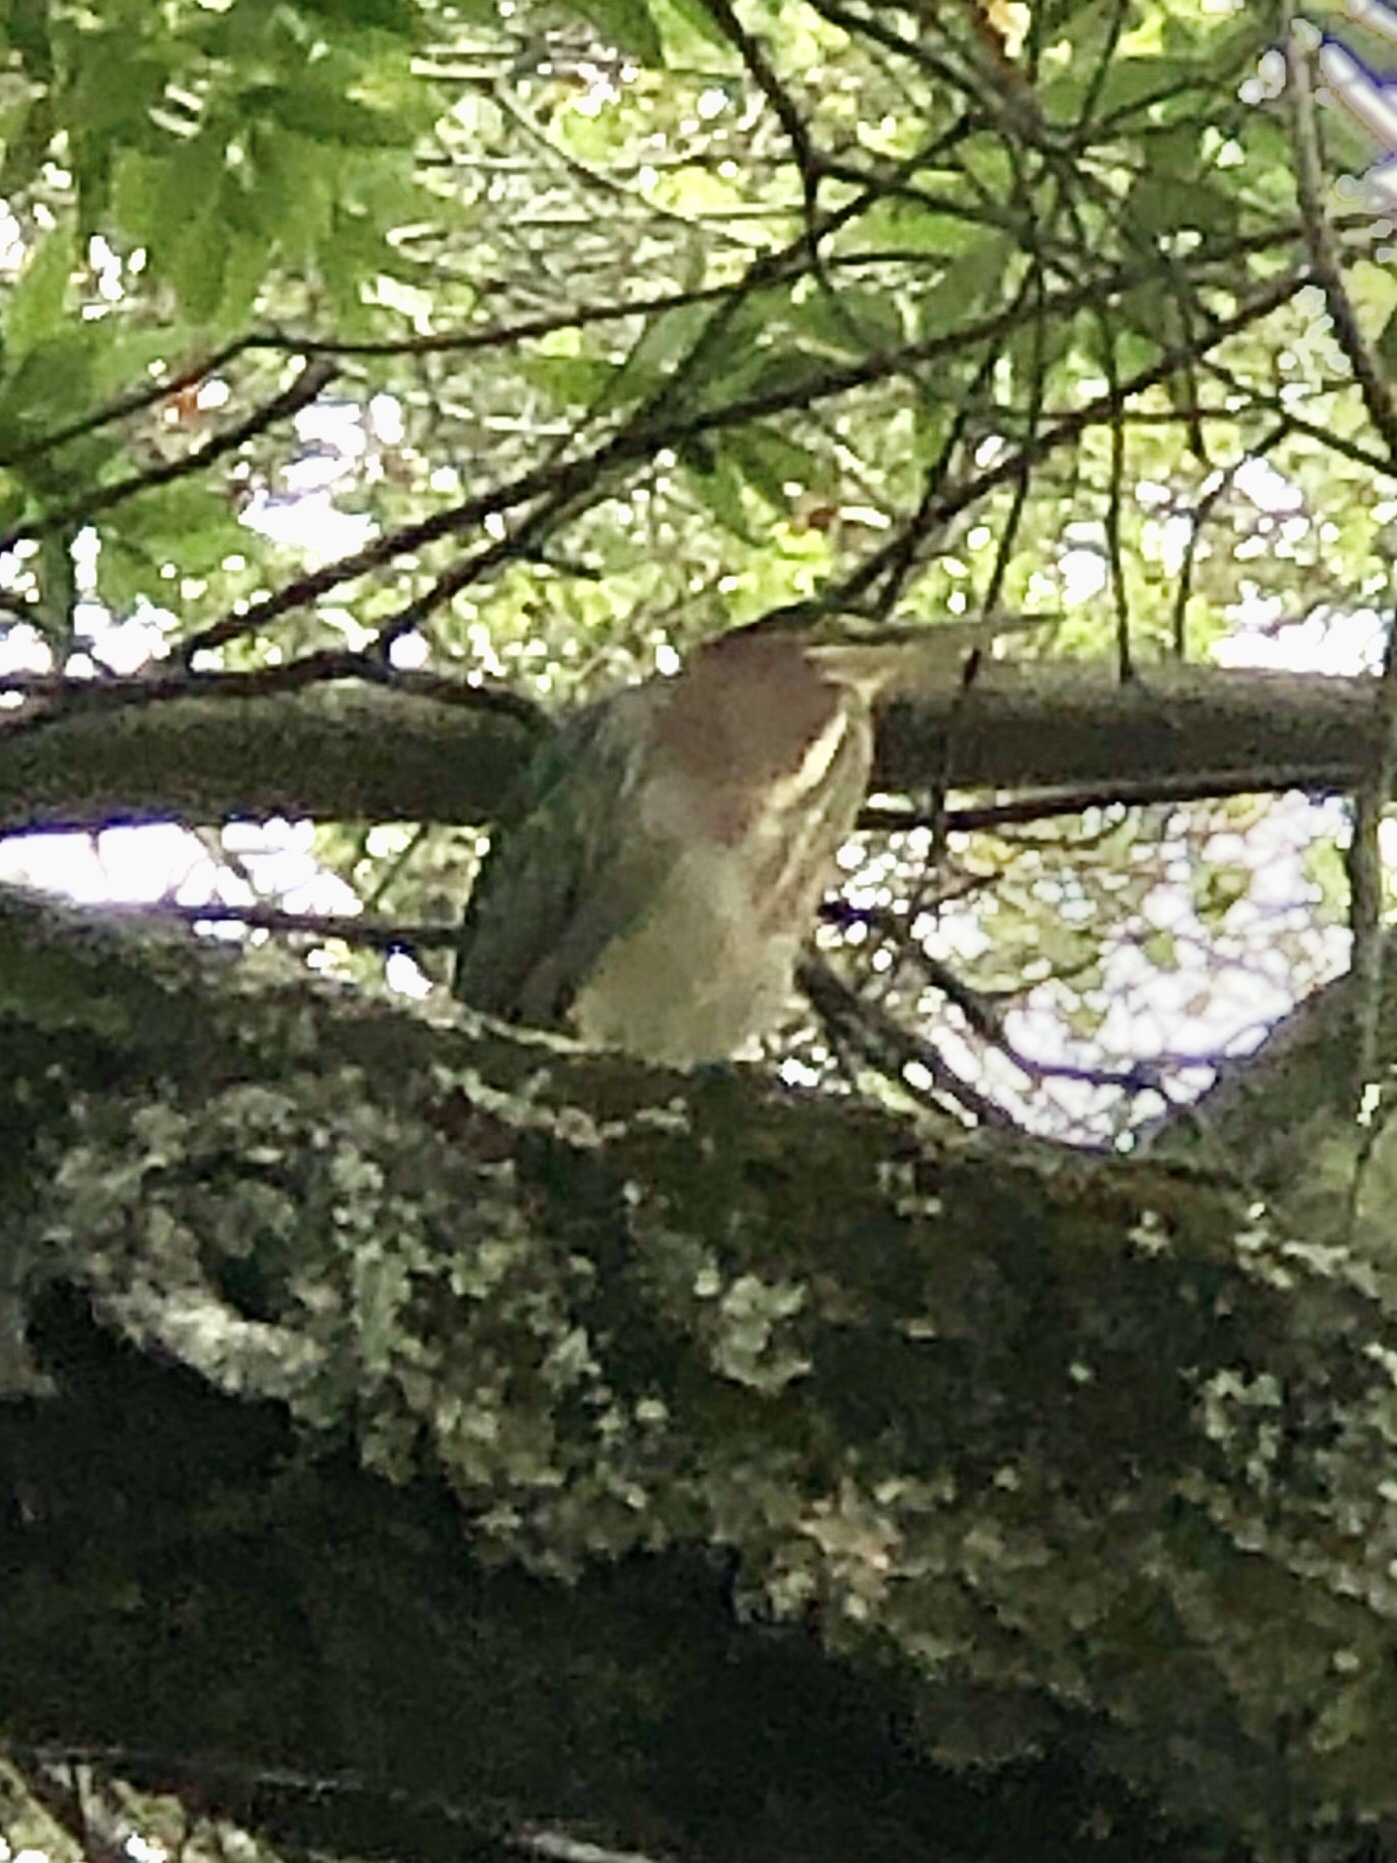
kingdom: Animalia
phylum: Chordata
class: Aves
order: Pelecaniformes
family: Ardeidae
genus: Butorides
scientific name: Butorides virescens
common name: Green heron
